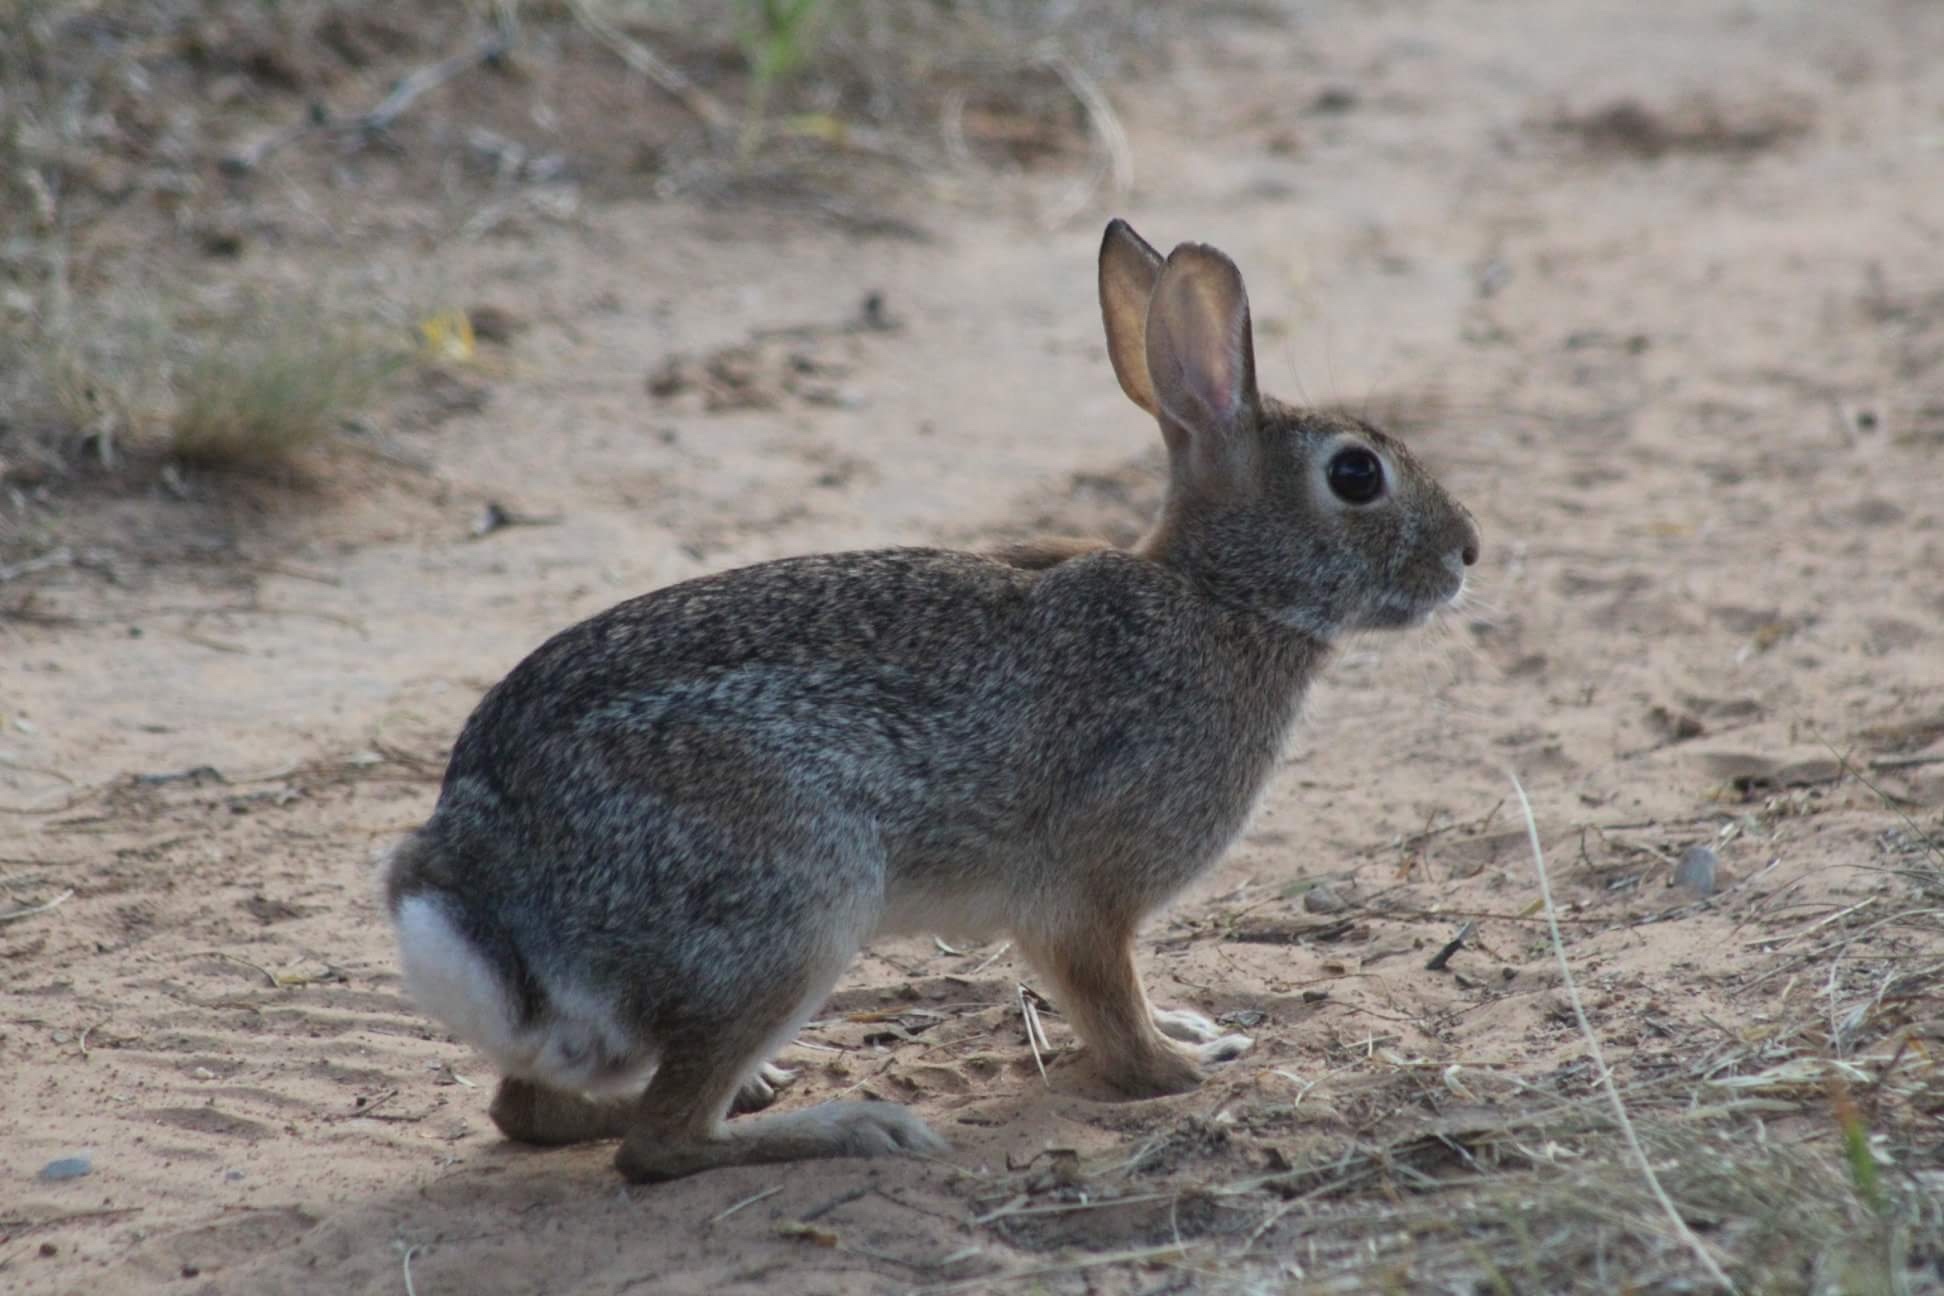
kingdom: Animalia
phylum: Chordata
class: Mammalia
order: Lagomorpha
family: Leporidae
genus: Sylvilagus
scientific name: Sylvilagus floridanus
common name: Eastern cottontail
